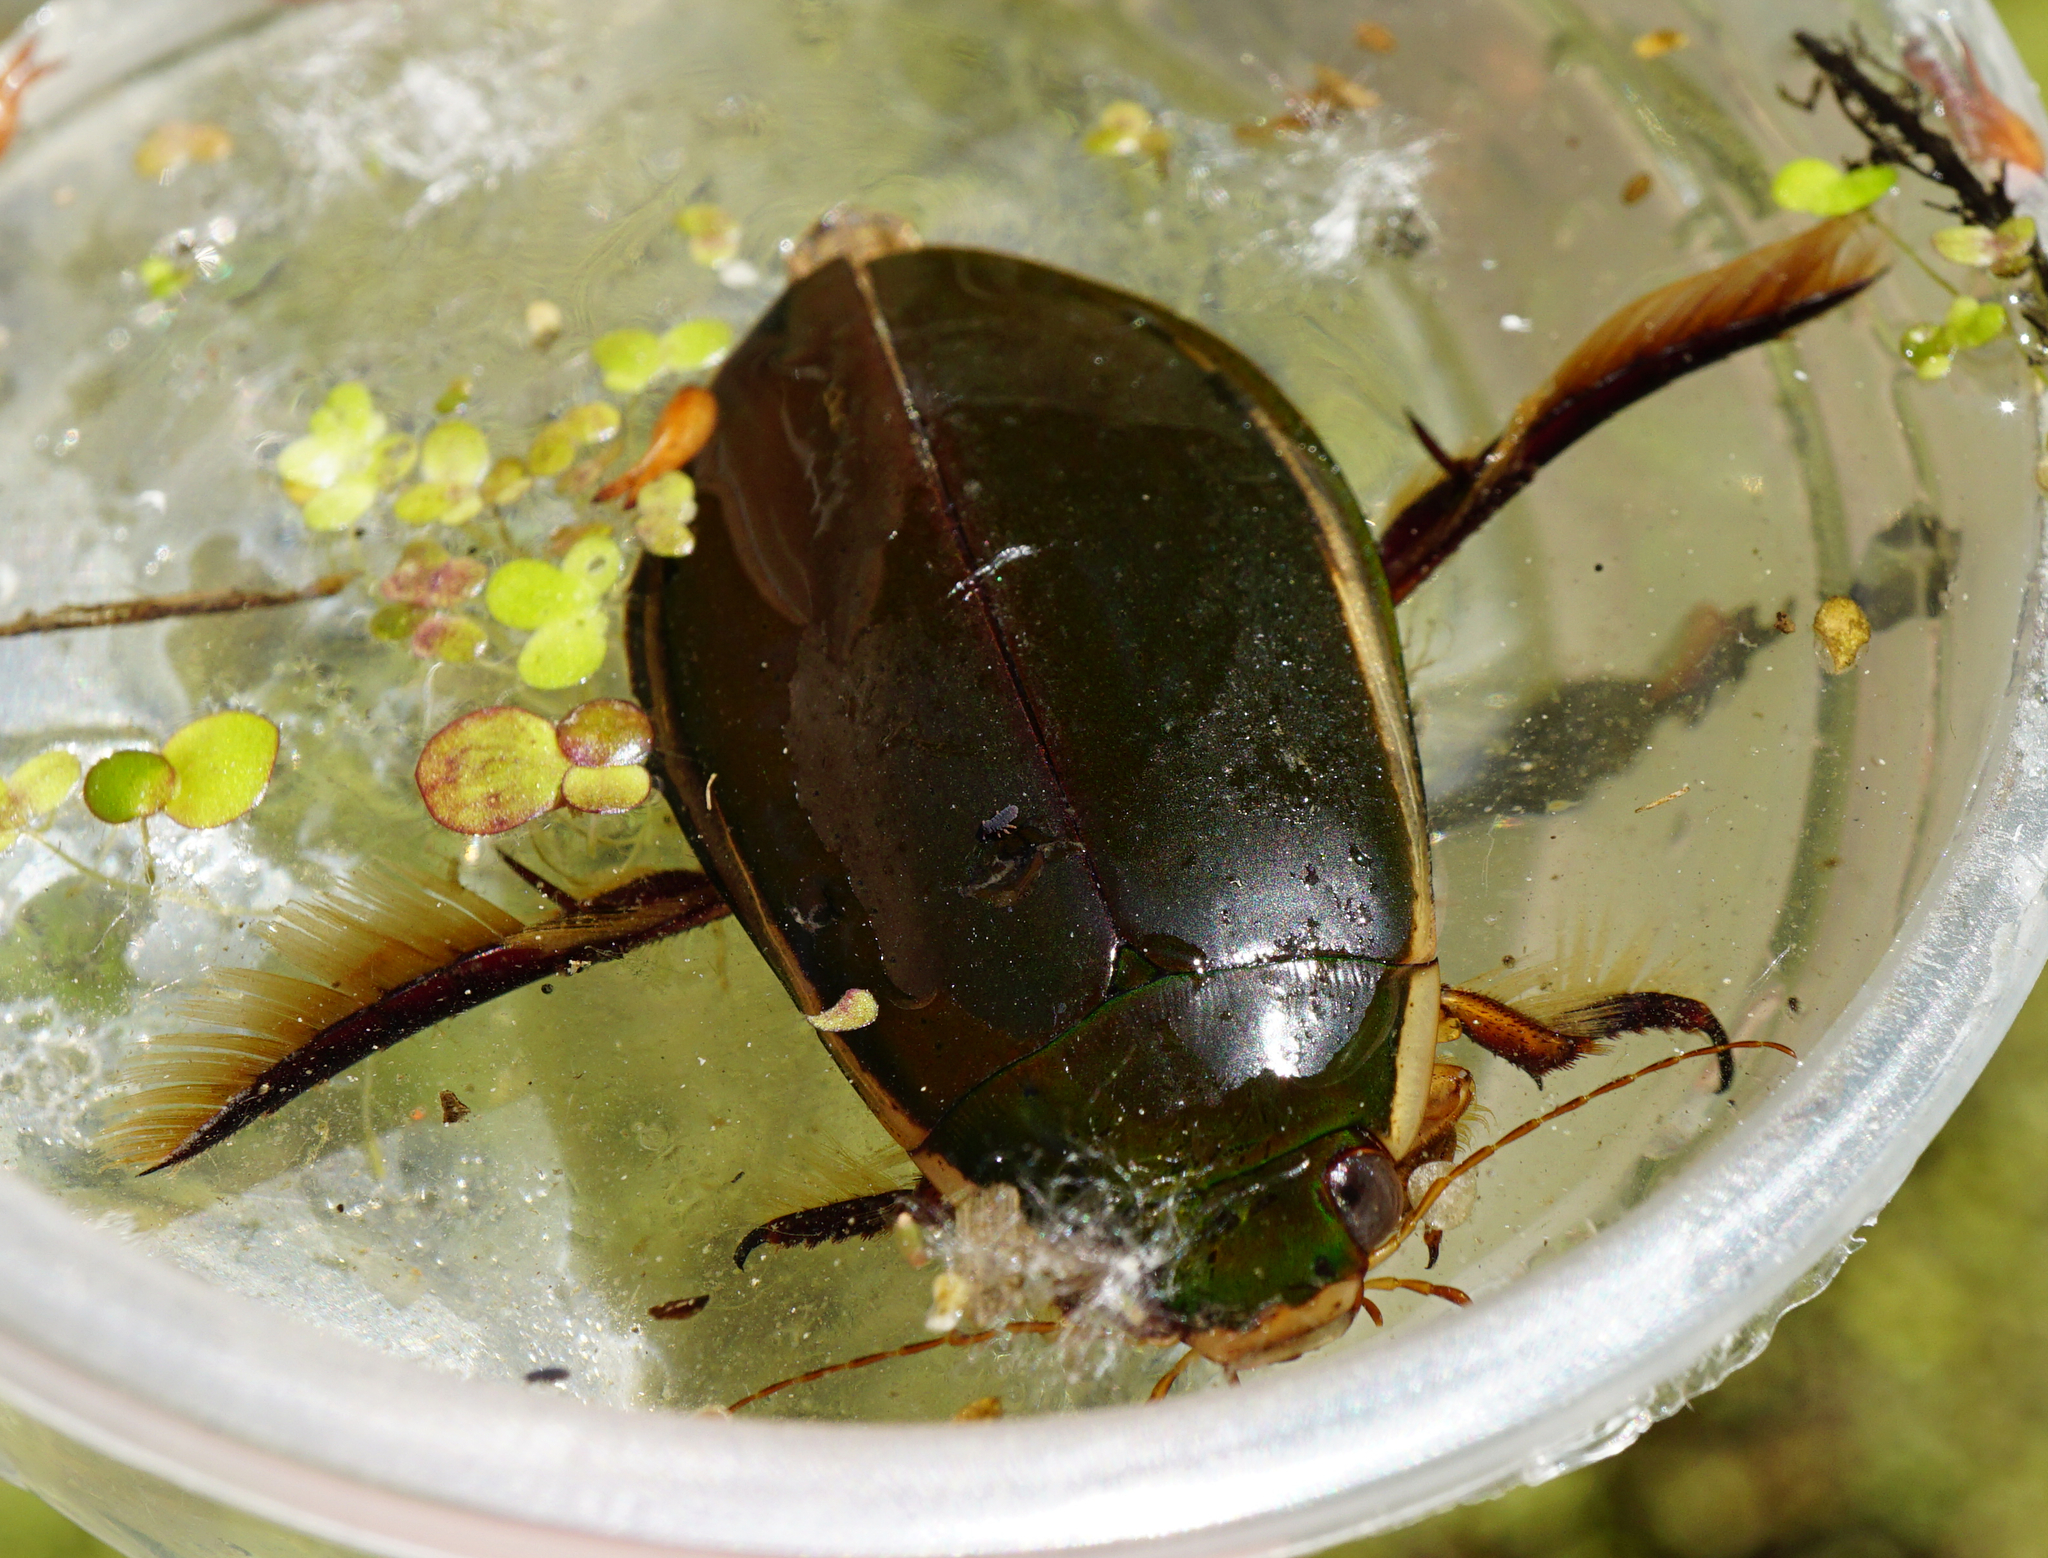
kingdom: Animalia
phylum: Arthropoda
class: Insecta
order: Coleoptera
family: Dytiscidae
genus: Cybister
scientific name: Cybister lateralimarginalis
